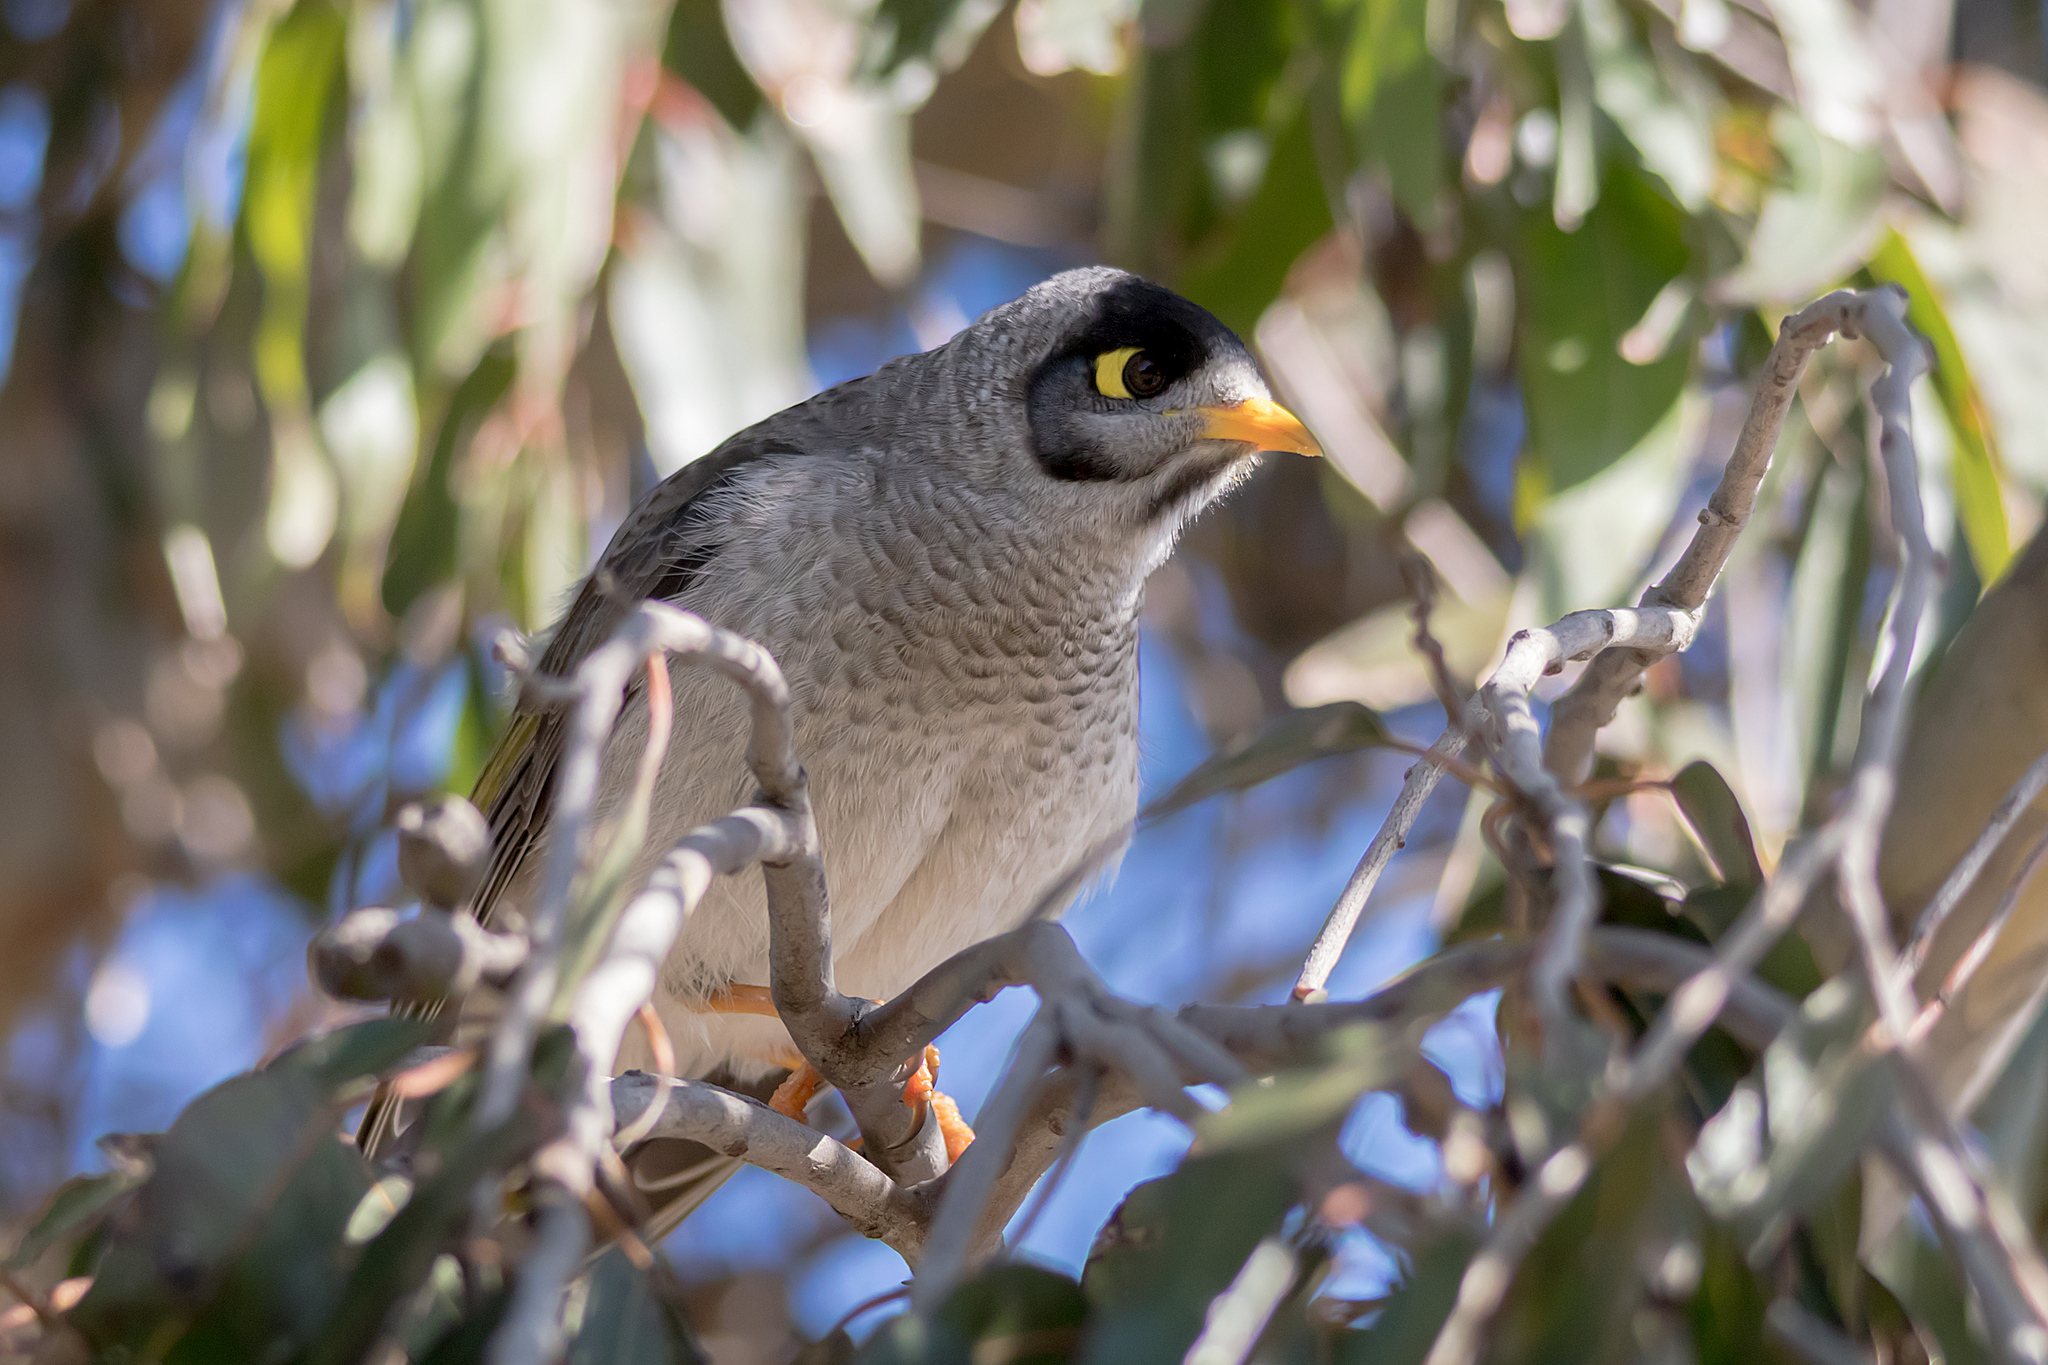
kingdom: Animalia
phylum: Chordata
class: Aves
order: Passeriformes
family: Meliphagidae
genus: Manorina
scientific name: Manorina melanocephala
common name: Noisy miner
